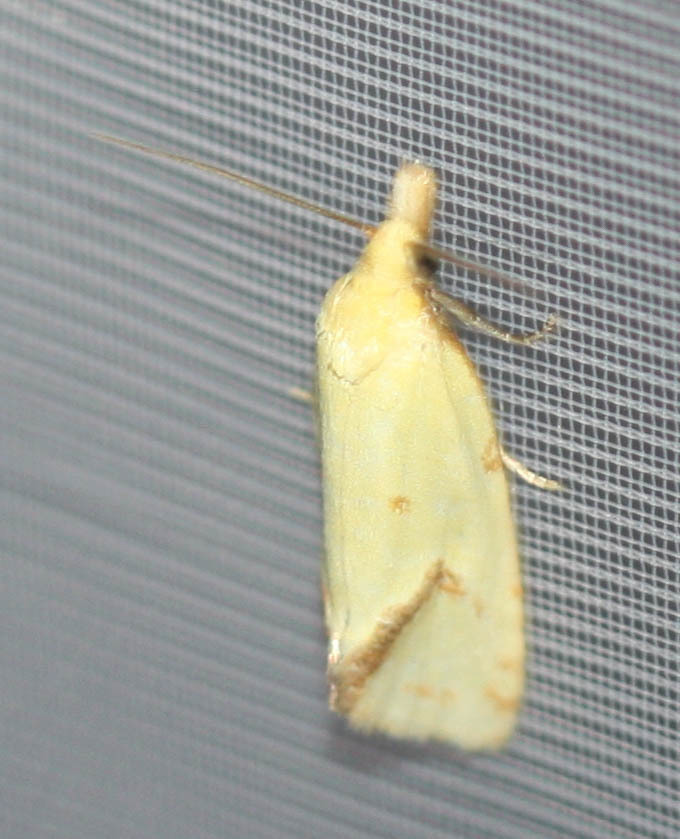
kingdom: Animalia
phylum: Arthropoda
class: Insecta
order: Lepidoptera
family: Tortricidae
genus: Agapeta
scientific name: Agapeta hamana
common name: Common yellow conch
